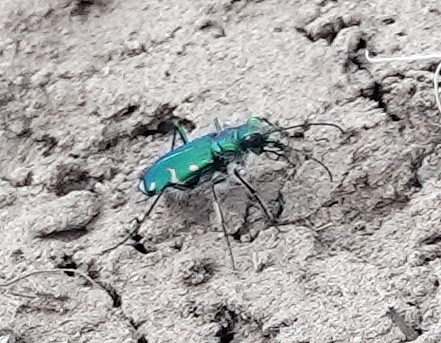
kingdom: Animalia
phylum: Arthropoda
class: Insecta
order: Coleoptera
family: Carabidae
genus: Cicindela
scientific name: Cicindela denverensis
